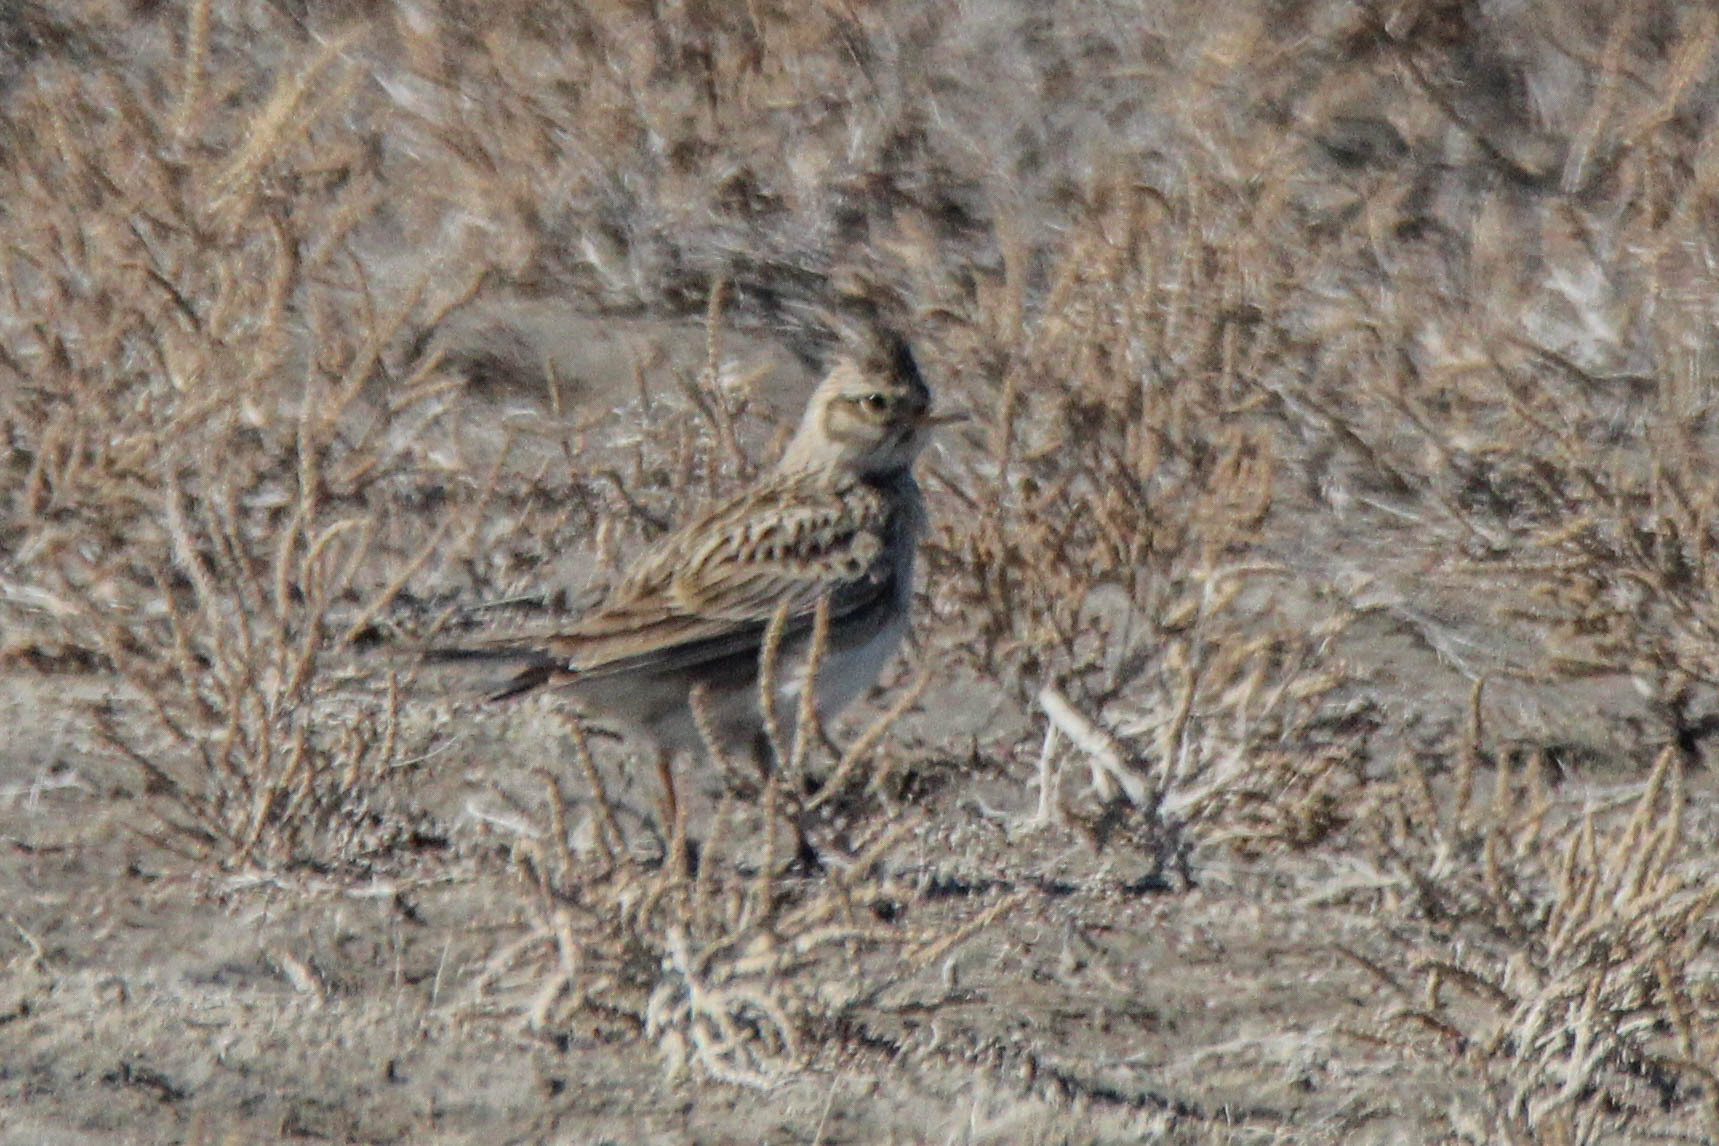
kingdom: Animalia
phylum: Chordata
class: Aves
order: Passeriformes
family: Alaudidae
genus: Alauda
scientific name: Alauda arvensis
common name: Eurasian skylark
